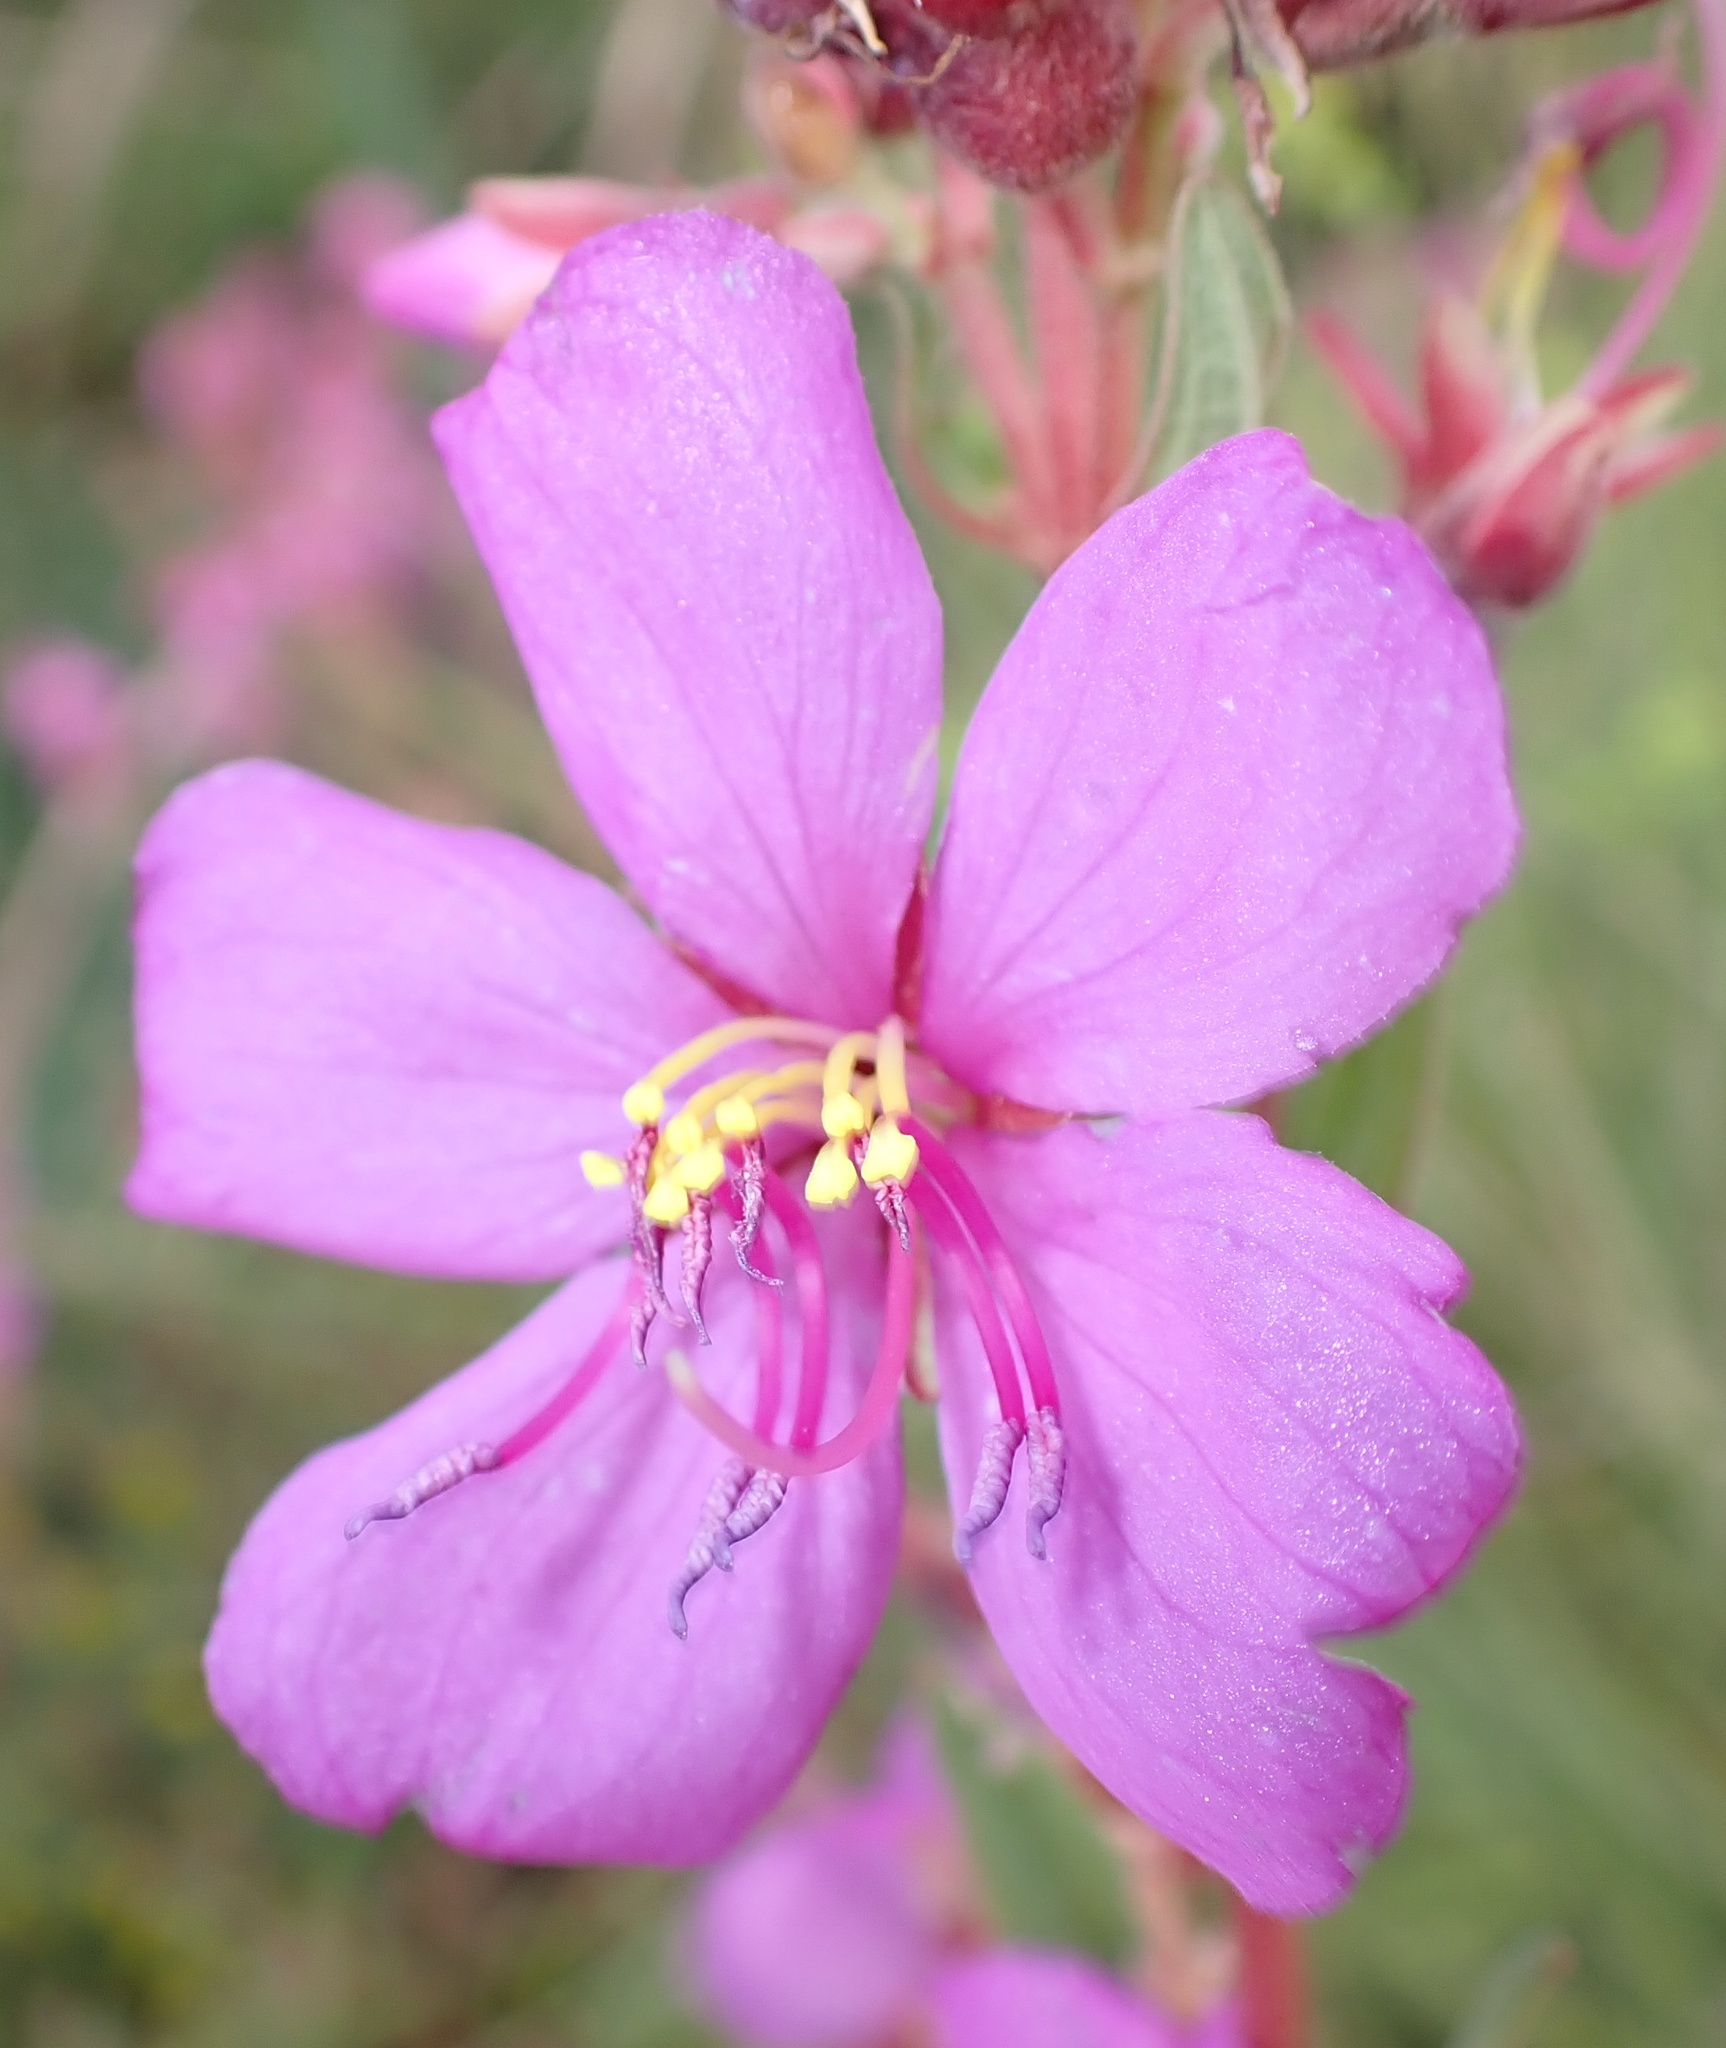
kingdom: Plantae
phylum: Tracheophyta
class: Magnoliopsida
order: Myrtales
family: Melastomataceae
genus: Argyrella
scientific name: Argyrella canescens
